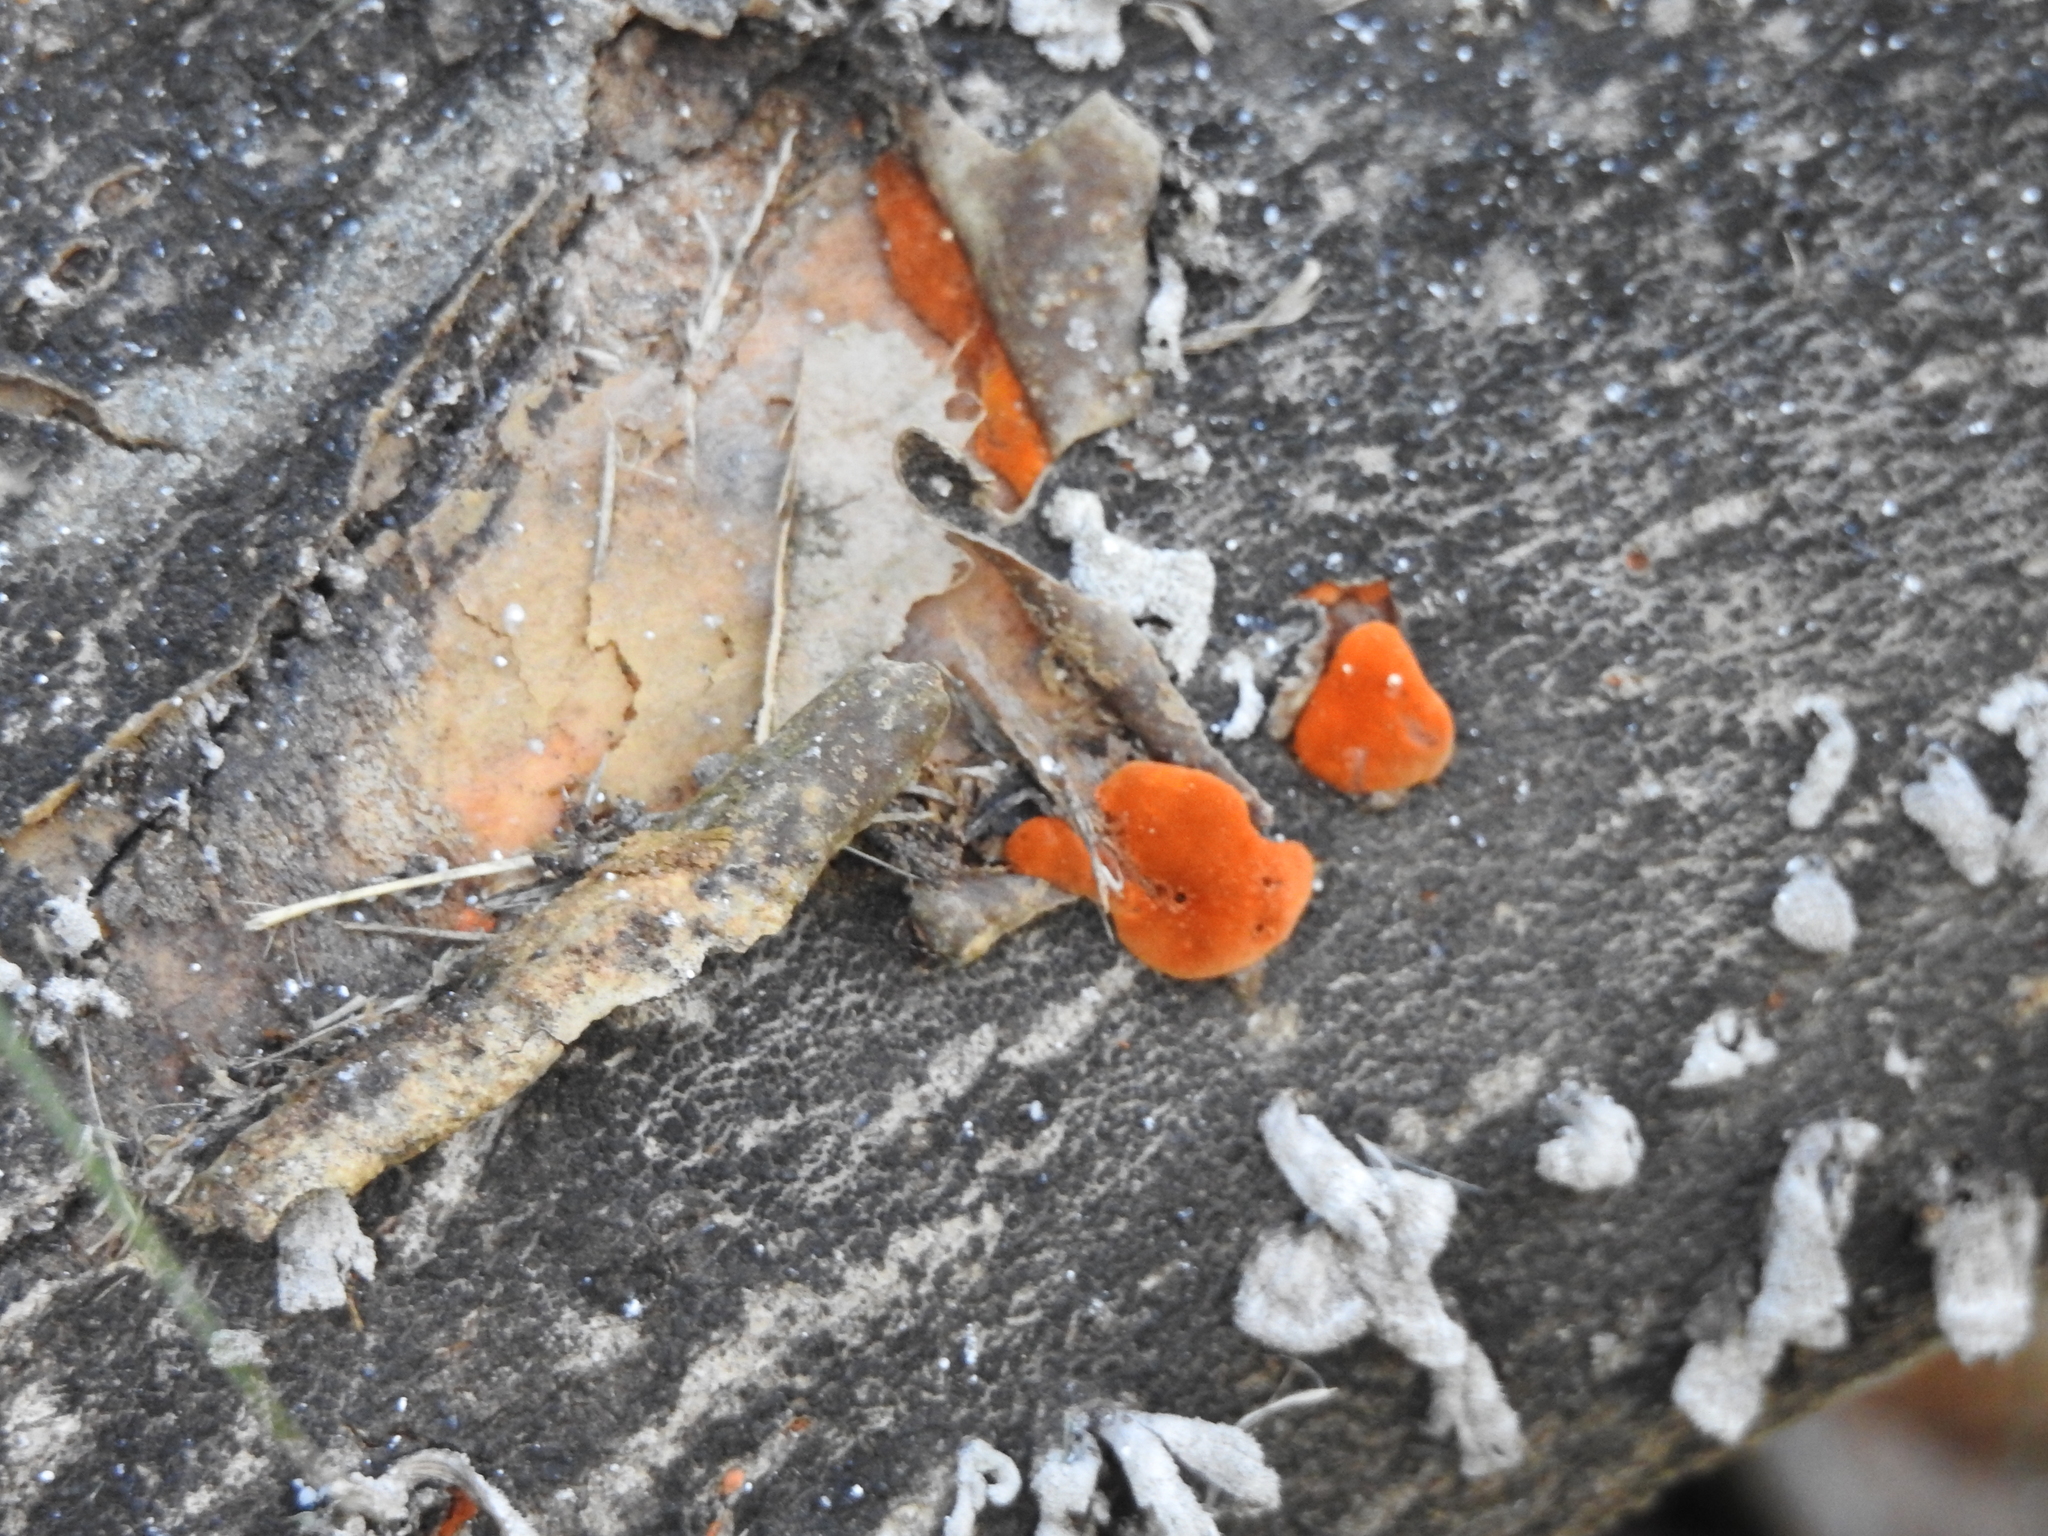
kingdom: Fungi
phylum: Basidiomycota
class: Agaricomycetes
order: Polyporales
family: Polyporaceae
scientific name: Polyporaceae
